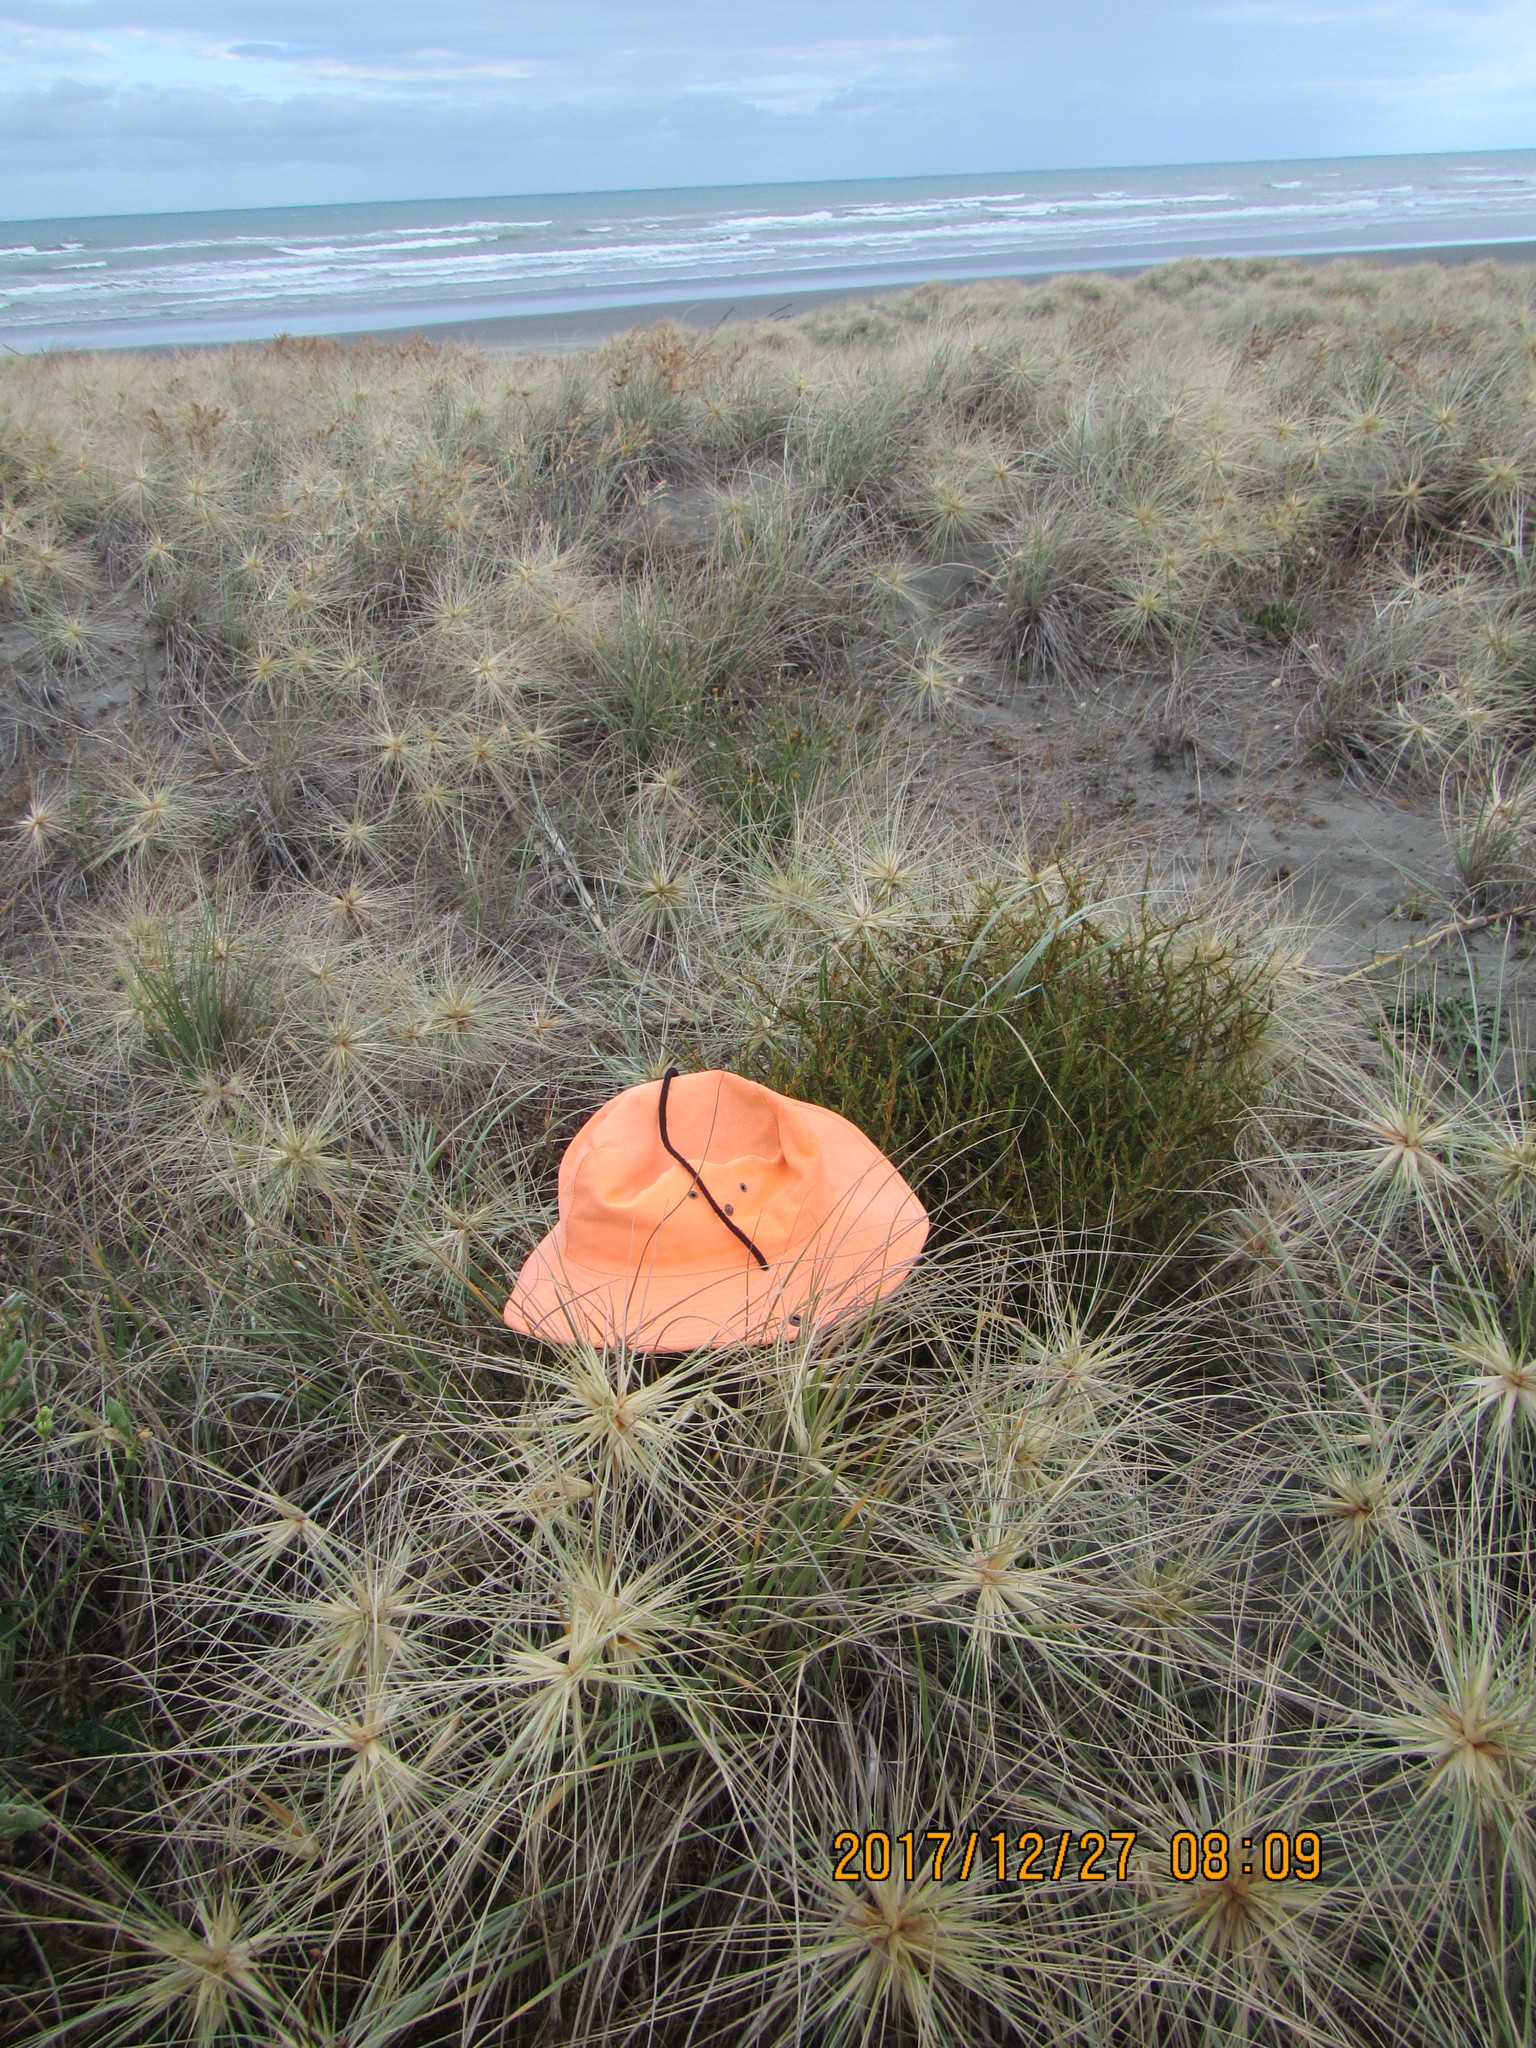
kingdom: Plantae
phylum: Tracheophyta
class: Magnoliopsida
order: Gentianales
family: Rubiaceae
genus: Coprosma
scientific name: Coprosma acerosa
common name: Sand coprosma
